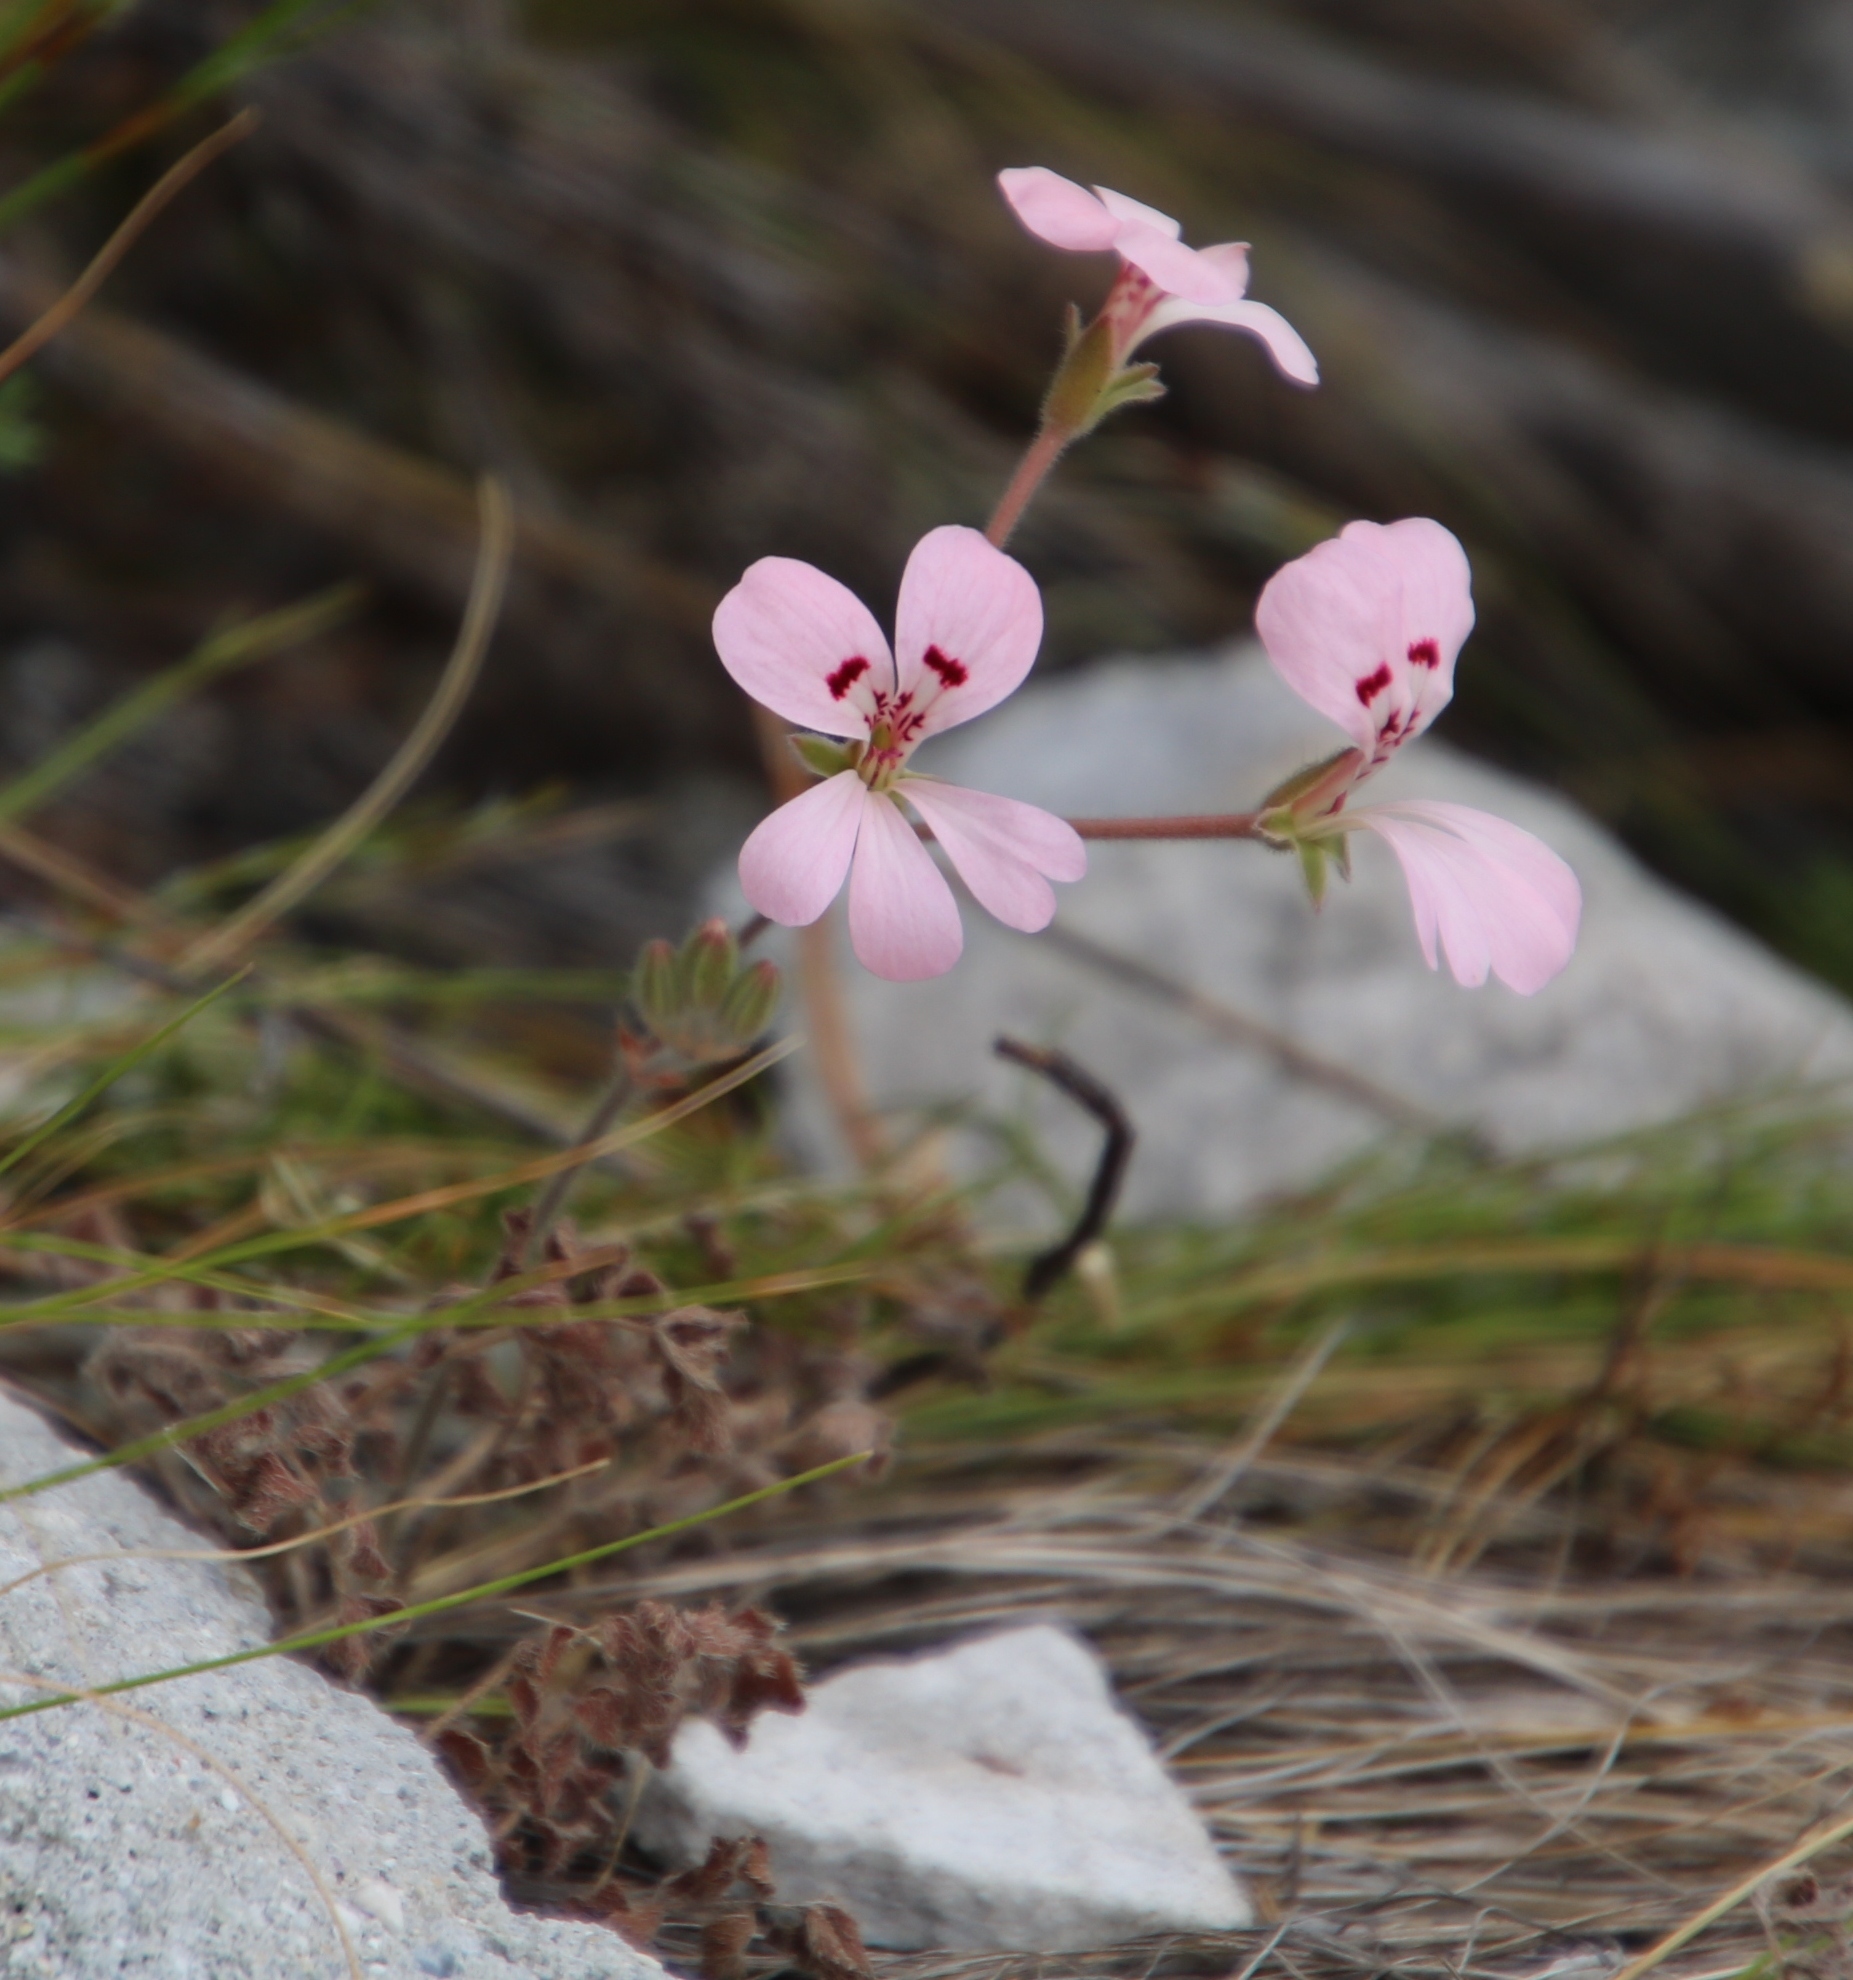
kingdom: Plantae
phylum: Tracheophyta
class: Magnoliopsida
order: Geraniales
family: Geraniaceae
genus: Pelargonium
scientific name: Pelargonium pinnatum
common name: Pinnated pelargonium
